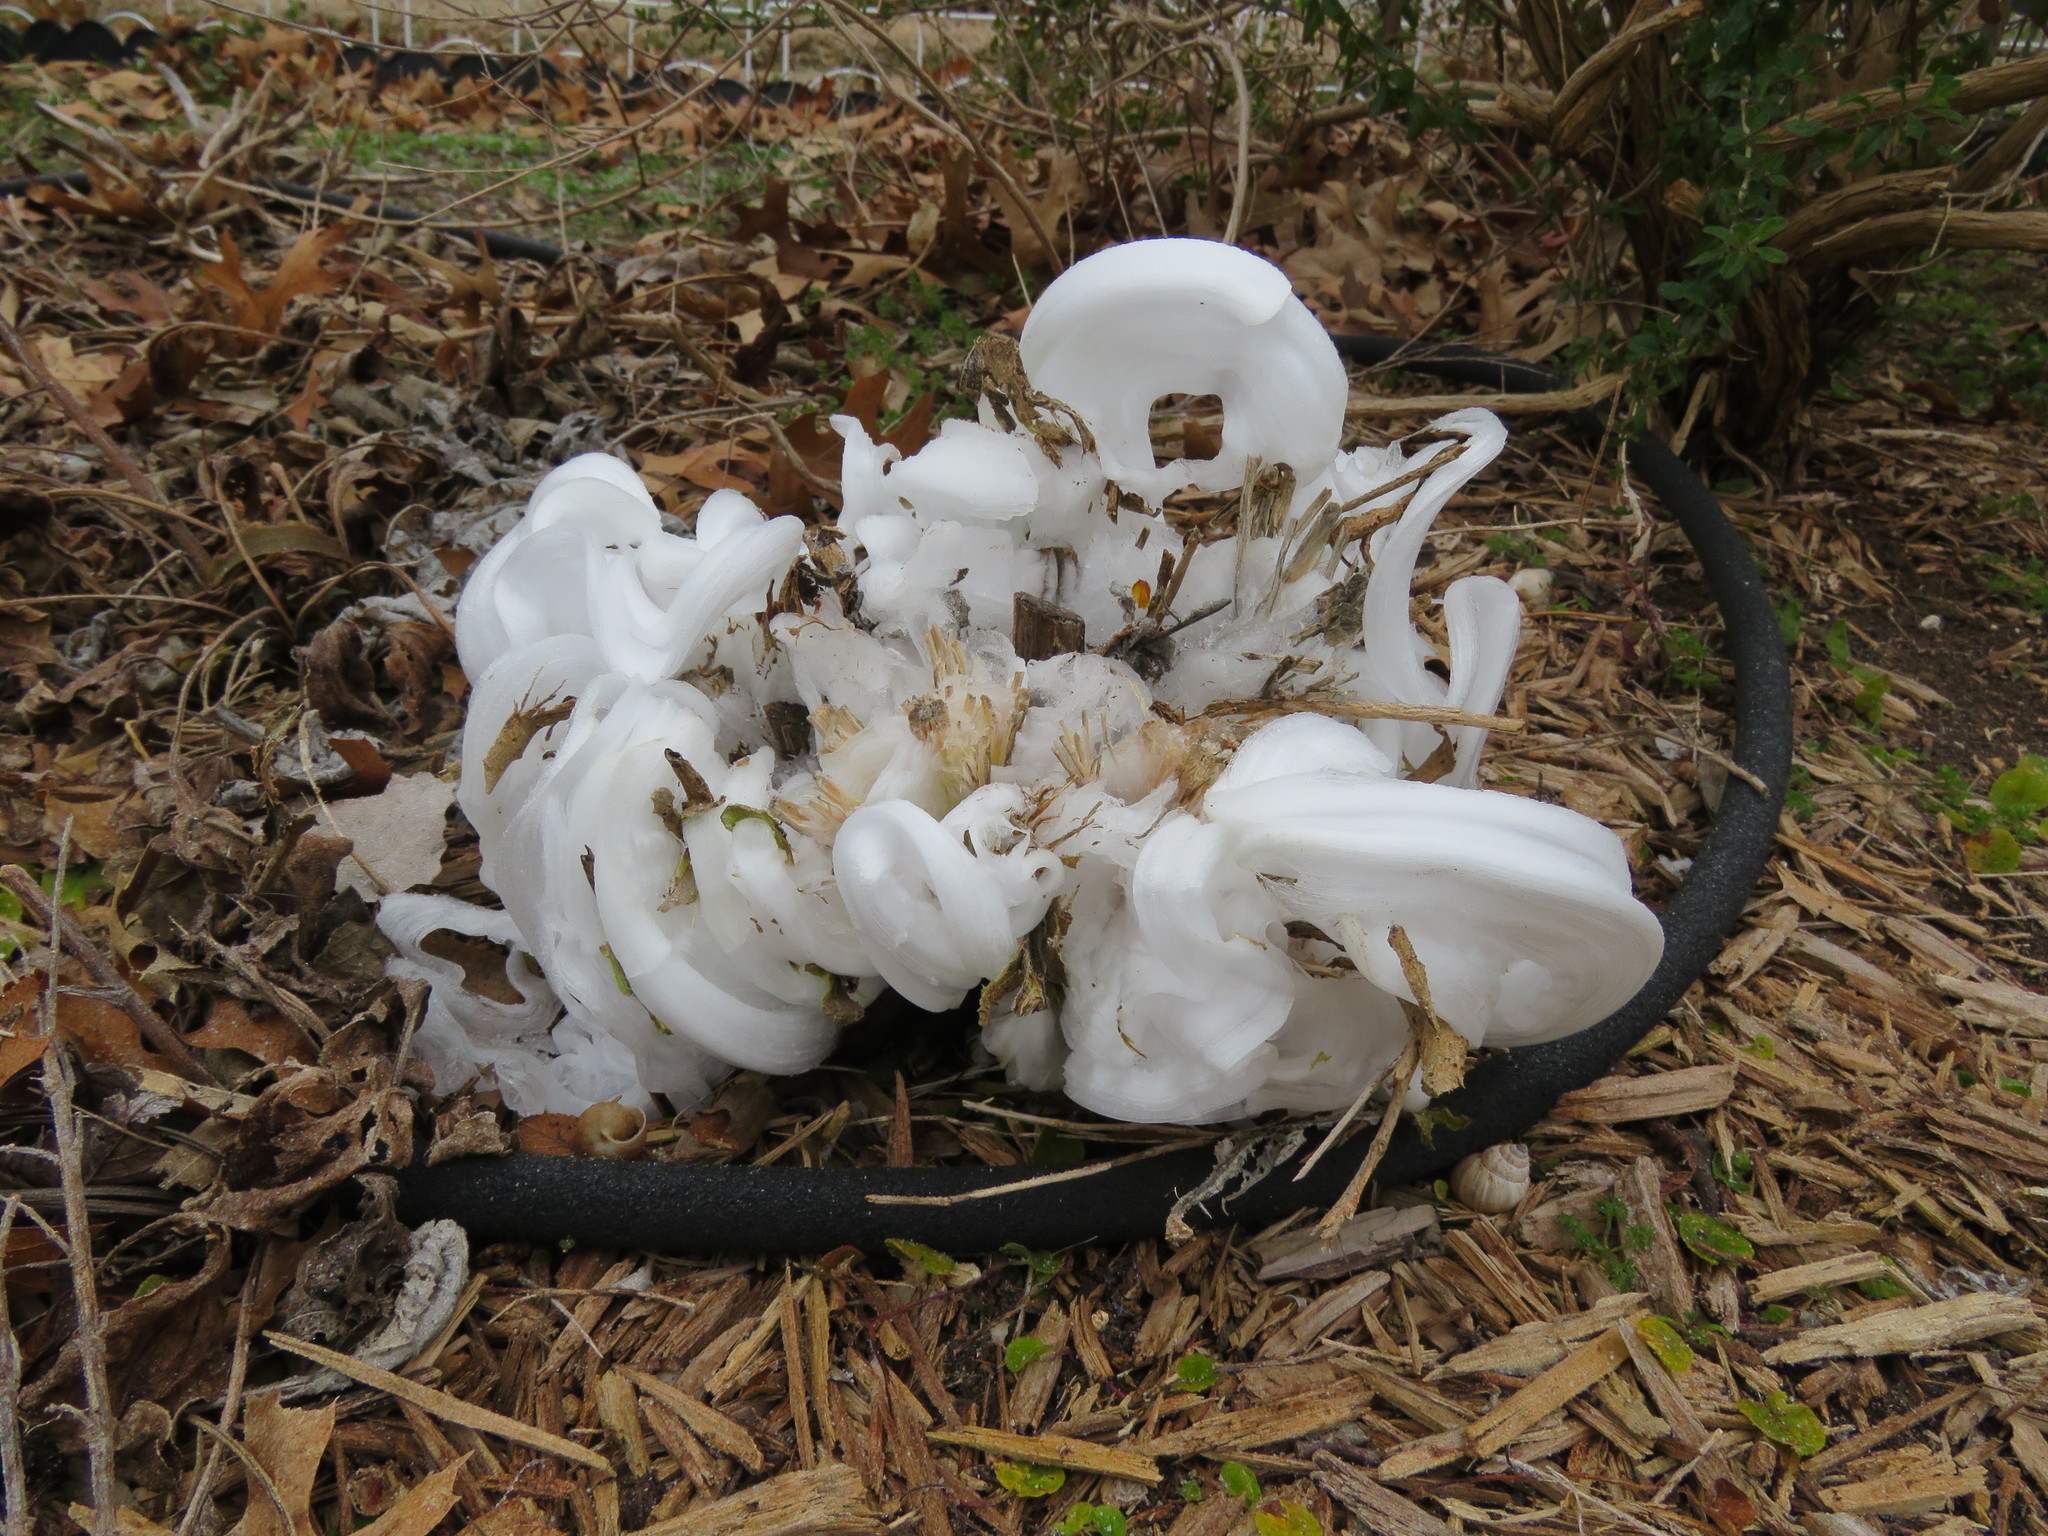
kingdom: Plantae
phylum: Tracheophyta
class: Magnoliopsida
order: Asterales
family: Asteraceae
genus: Verbesina
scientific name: Verbesina virginica
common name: Frostweed
